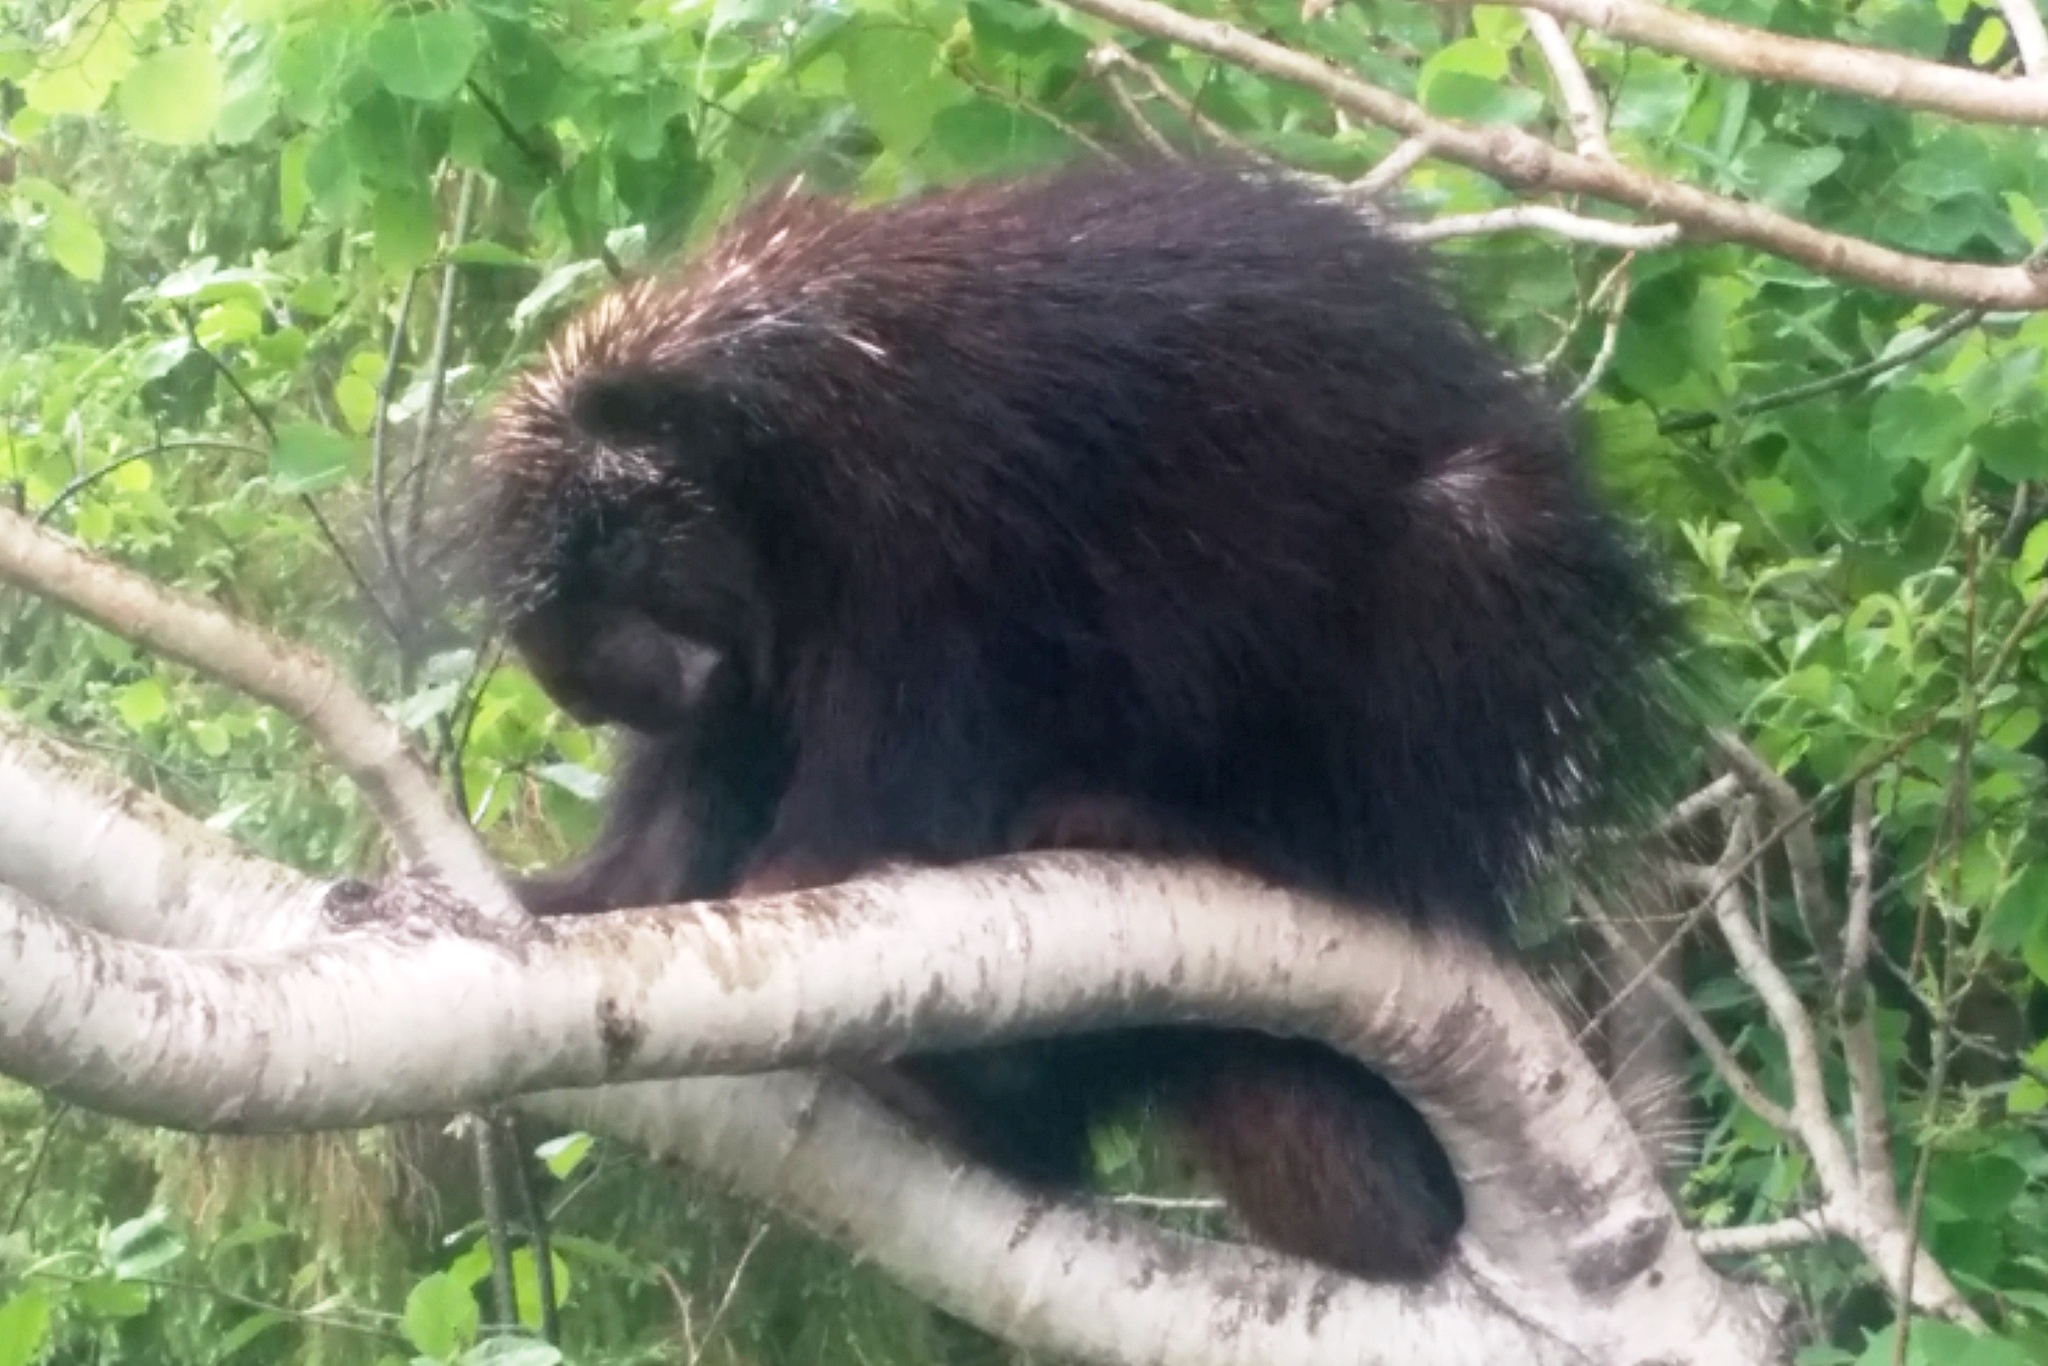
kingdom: Animalia
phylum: Chordata
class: Mammalia
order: Rodentia
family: Erethizontidae
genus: Erethizon
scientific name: Erethizon dorsatus
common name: North american porcupine
